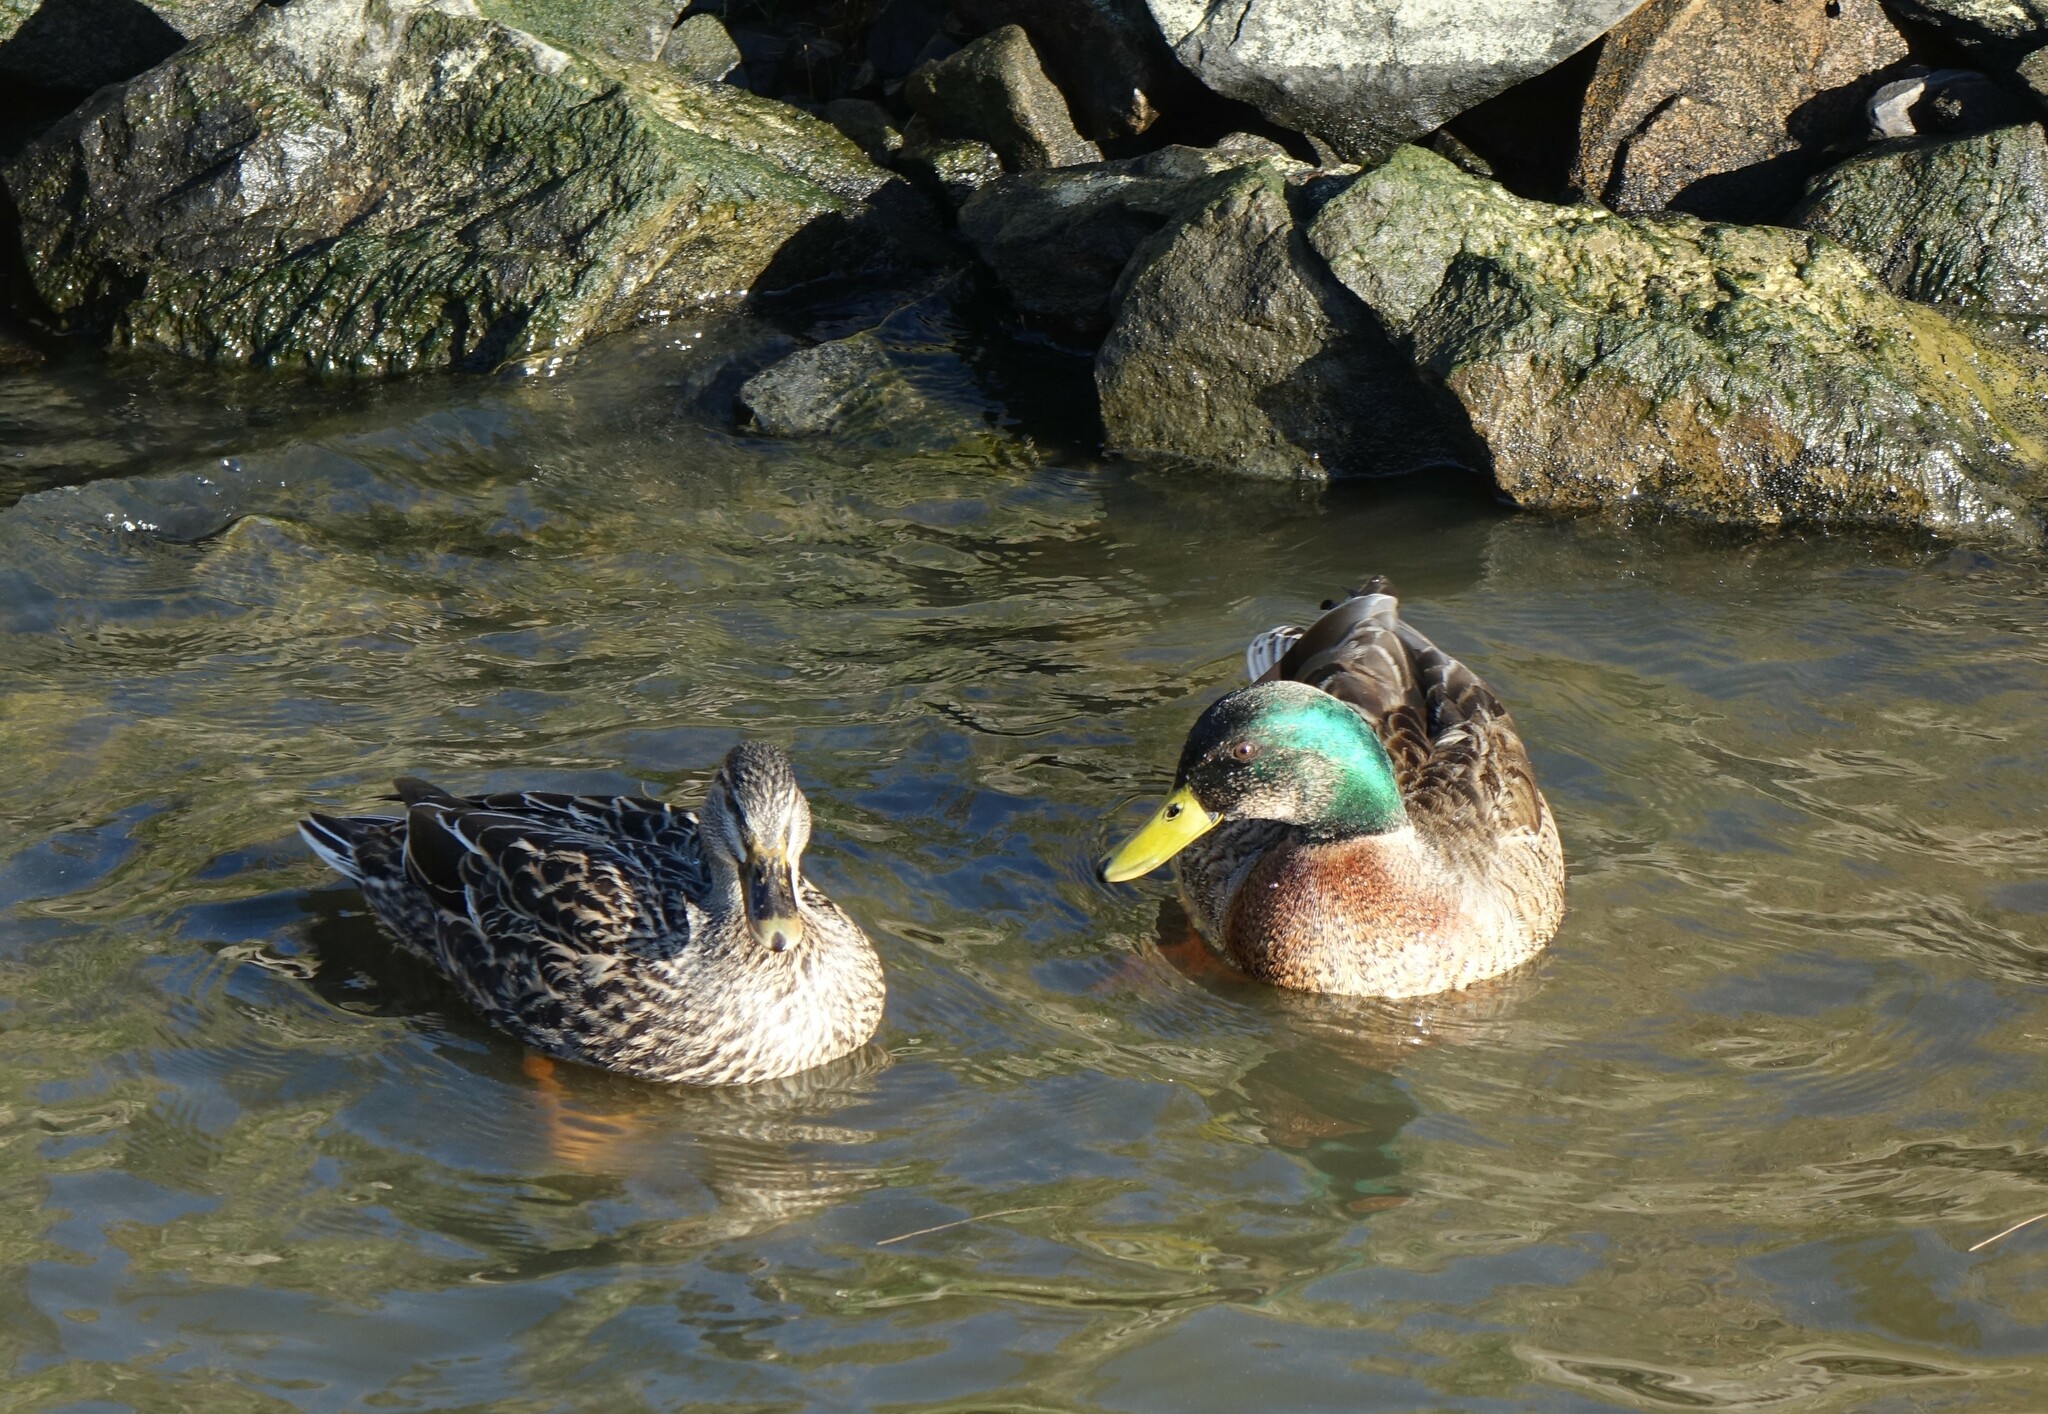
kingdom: Animalia
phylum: Chordata
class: Aves
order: Anseriformes
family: Anatidae
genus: Anas
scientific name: Anas platyrhynchos
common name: Mallard
